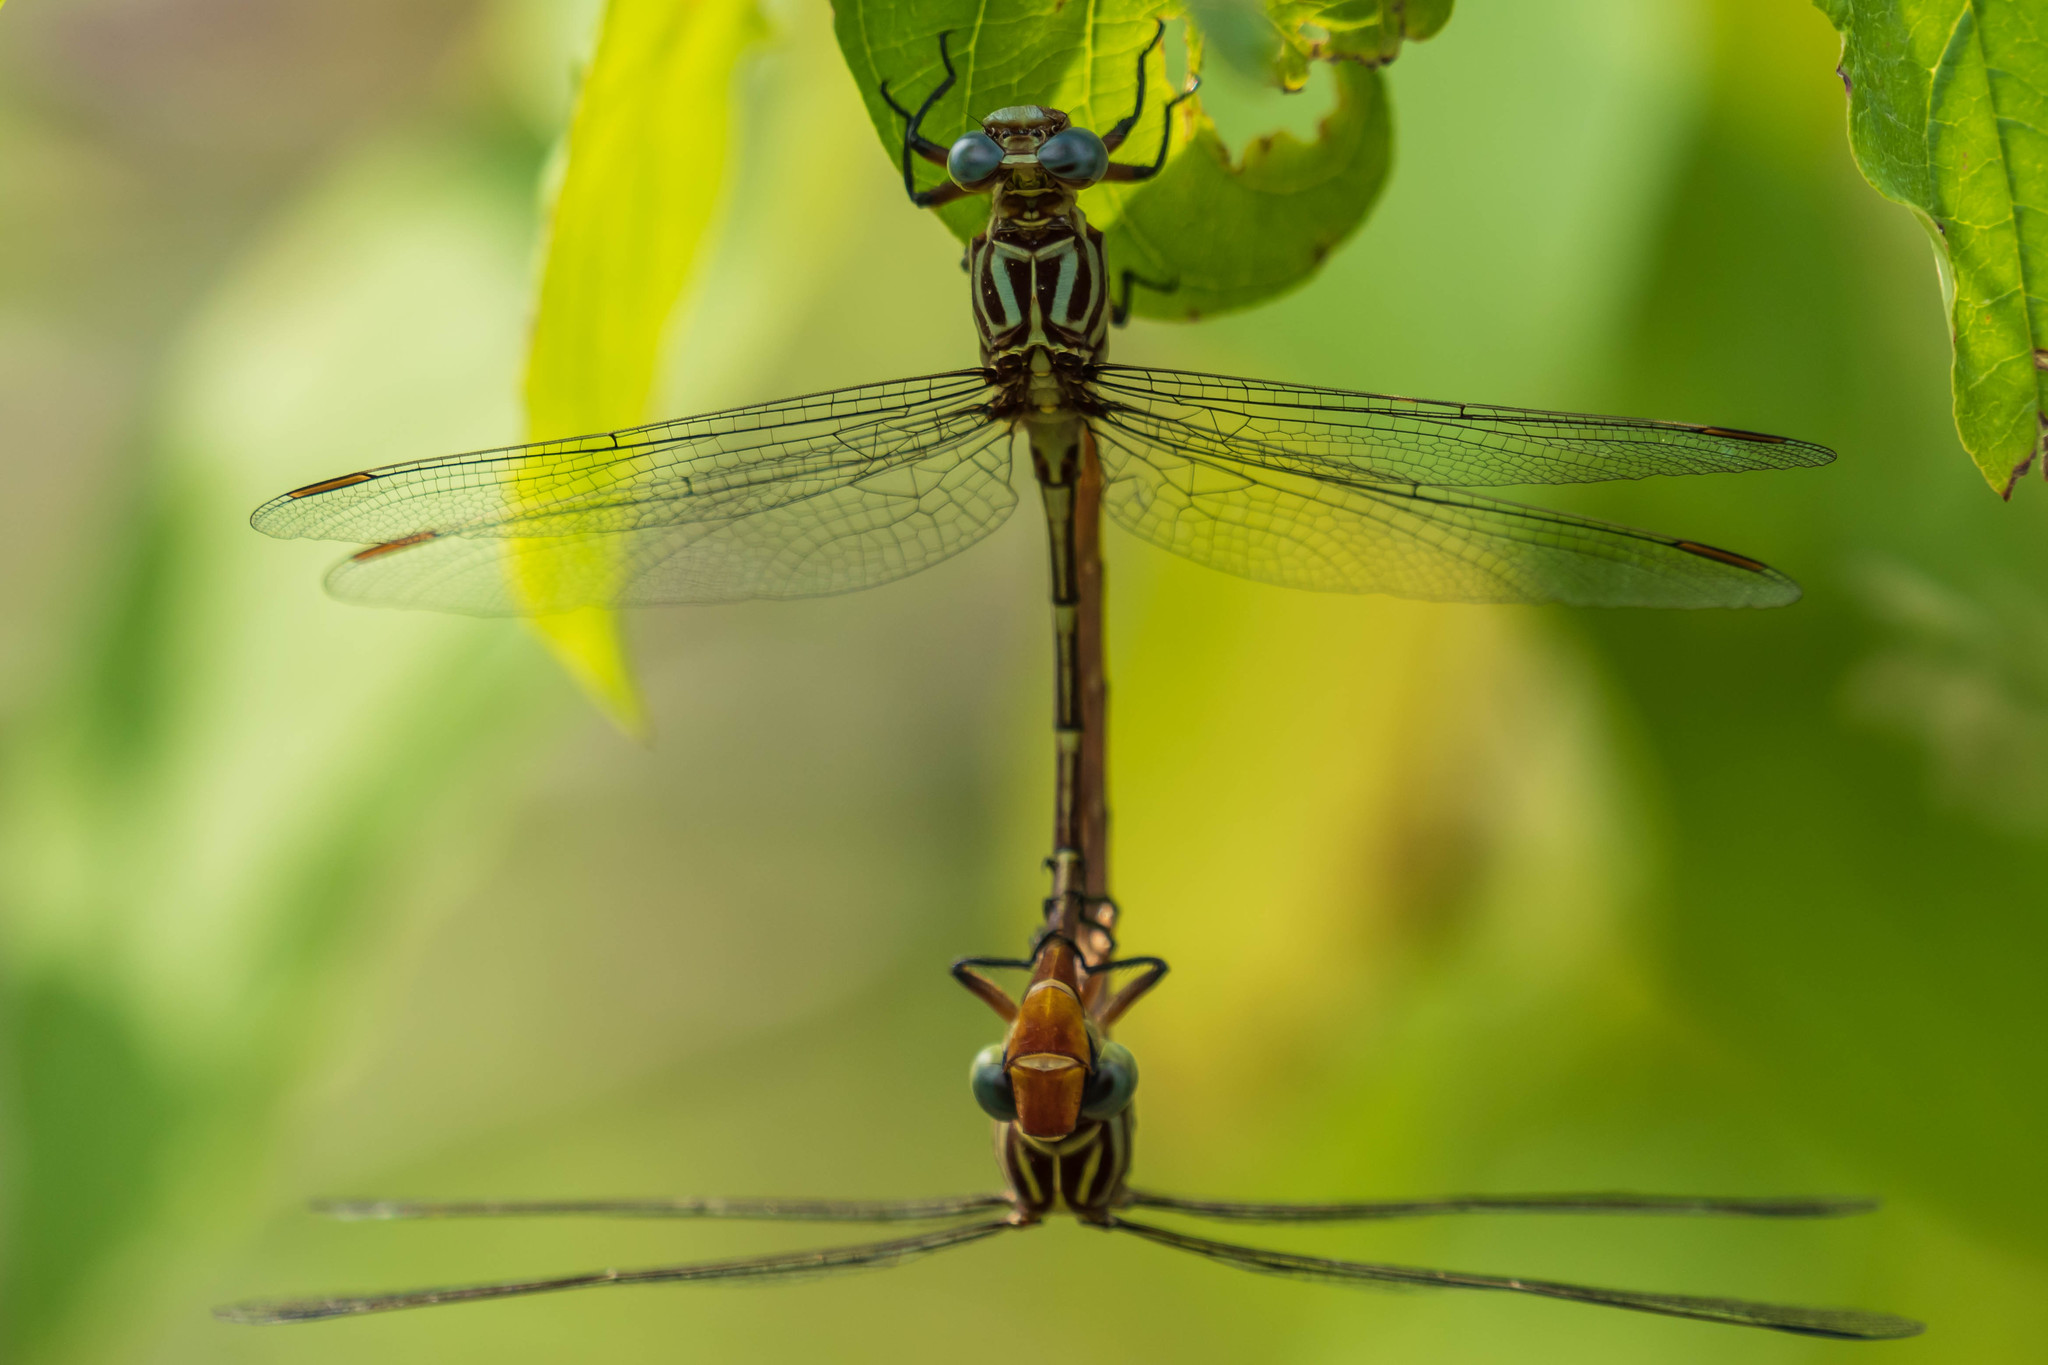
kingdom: Animalia
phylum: Arthropoda
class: Insecta
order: Odonata
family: Gomphidae
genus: Stylurus
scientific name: Stylurus plagiatus
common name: Russet-tipped clubtail
